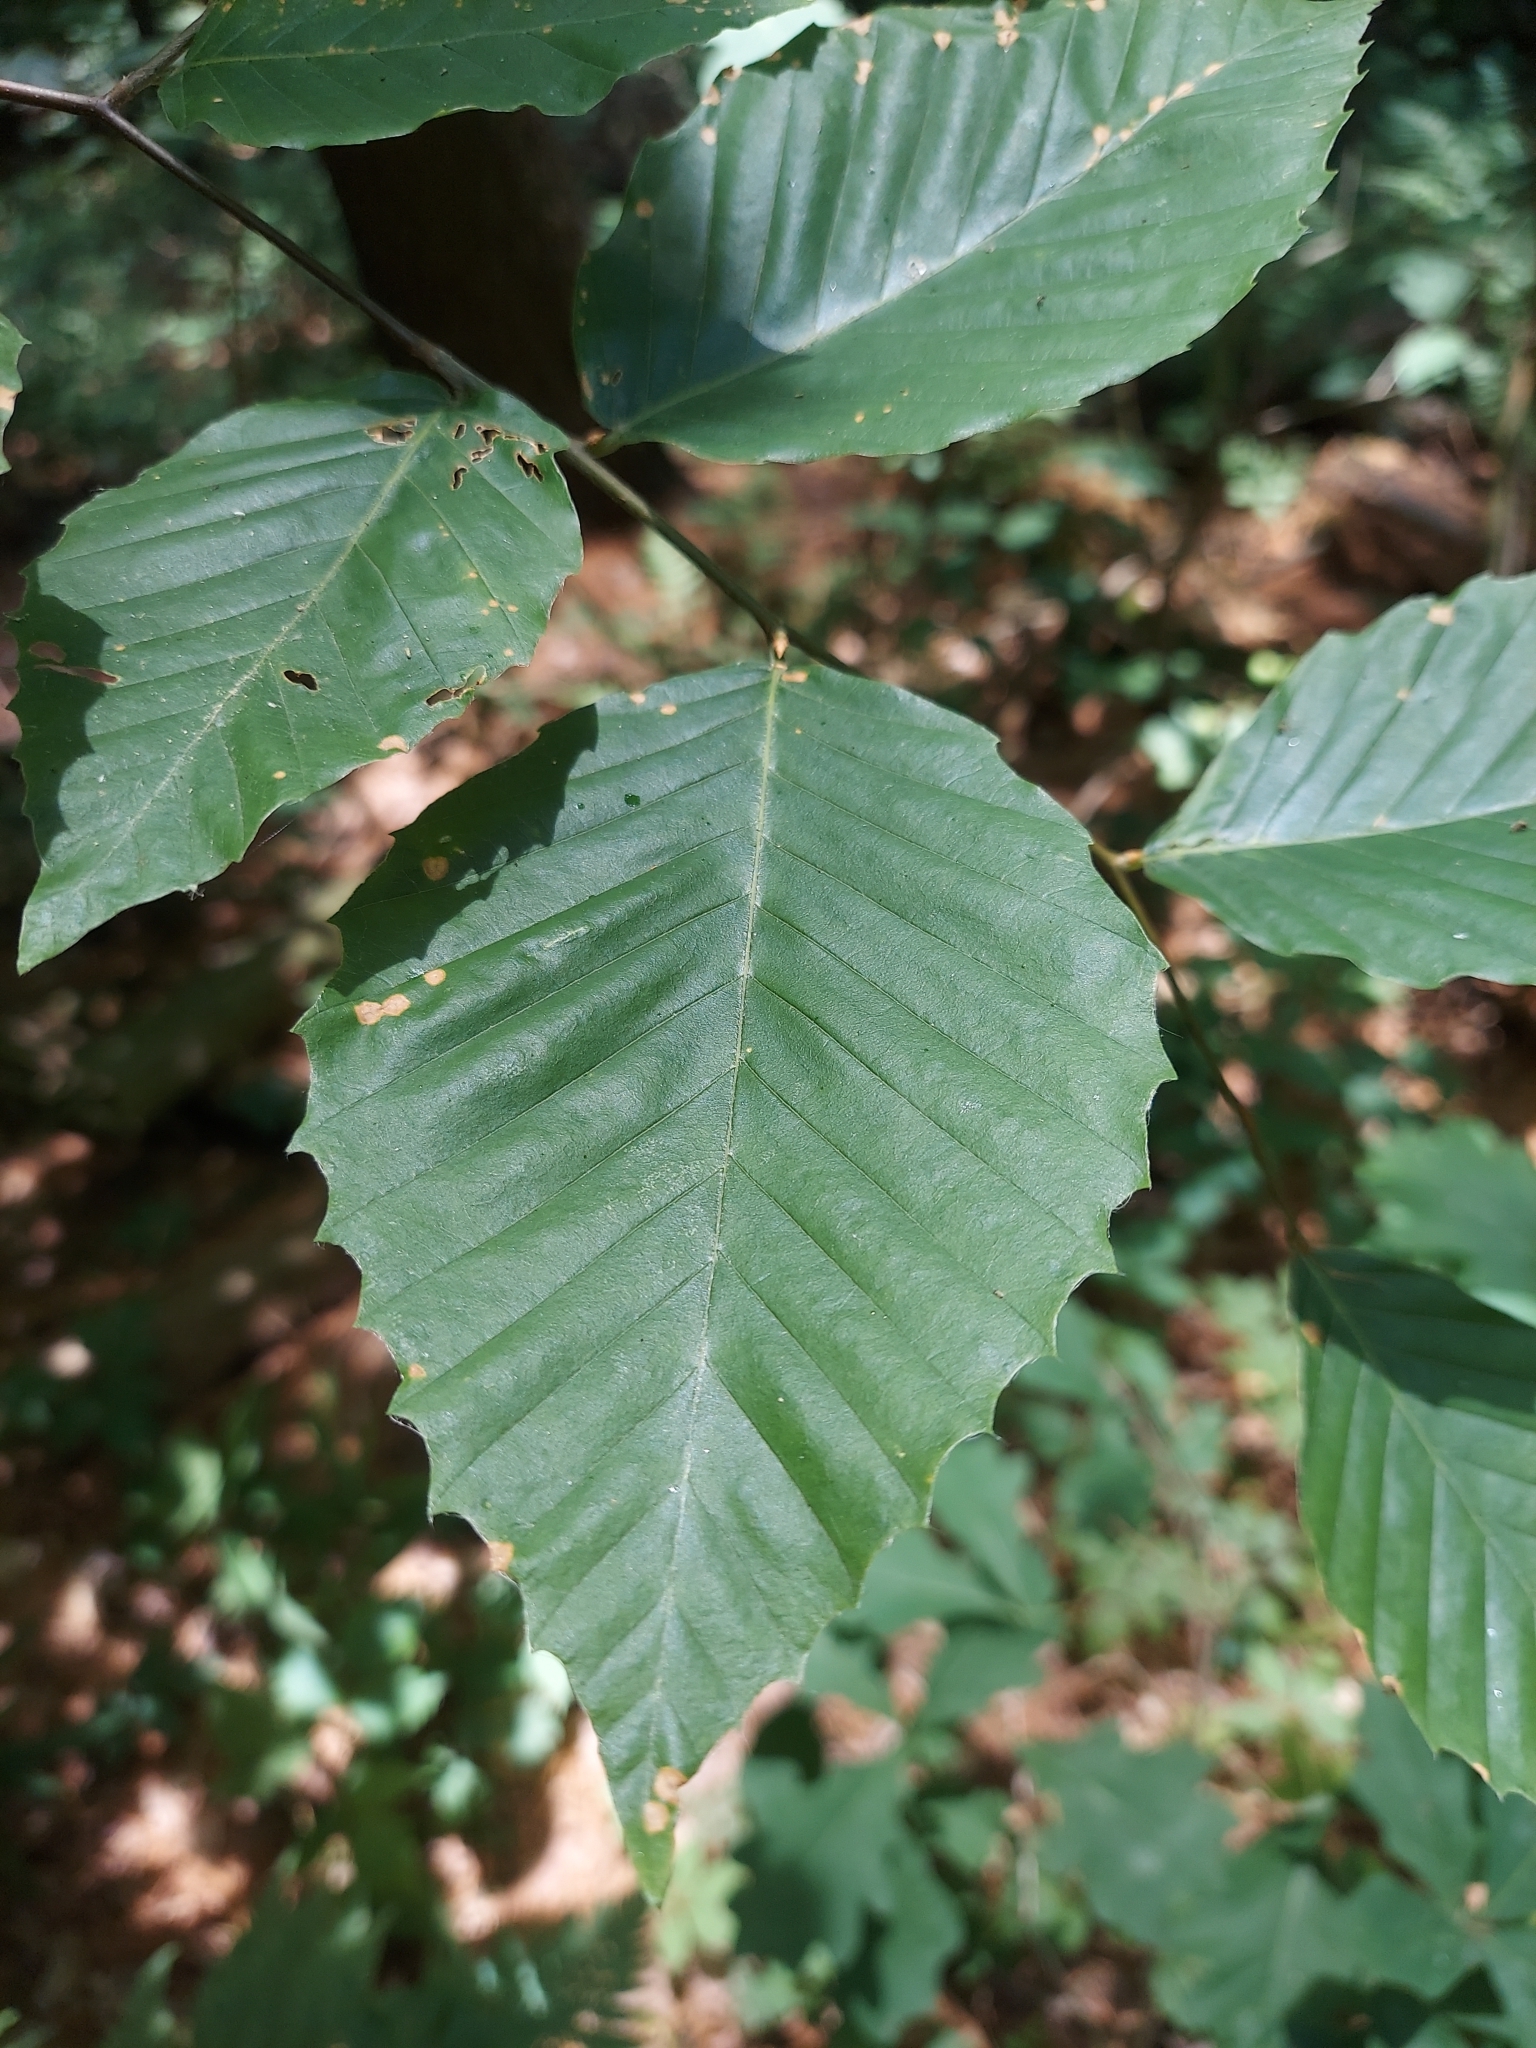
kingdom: Plantae
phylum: Tracheophyta
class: Magnoliopsida
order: Fagales
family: Fagaceae
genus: Fagus
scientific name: Fagus grandifolia
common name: American beech
